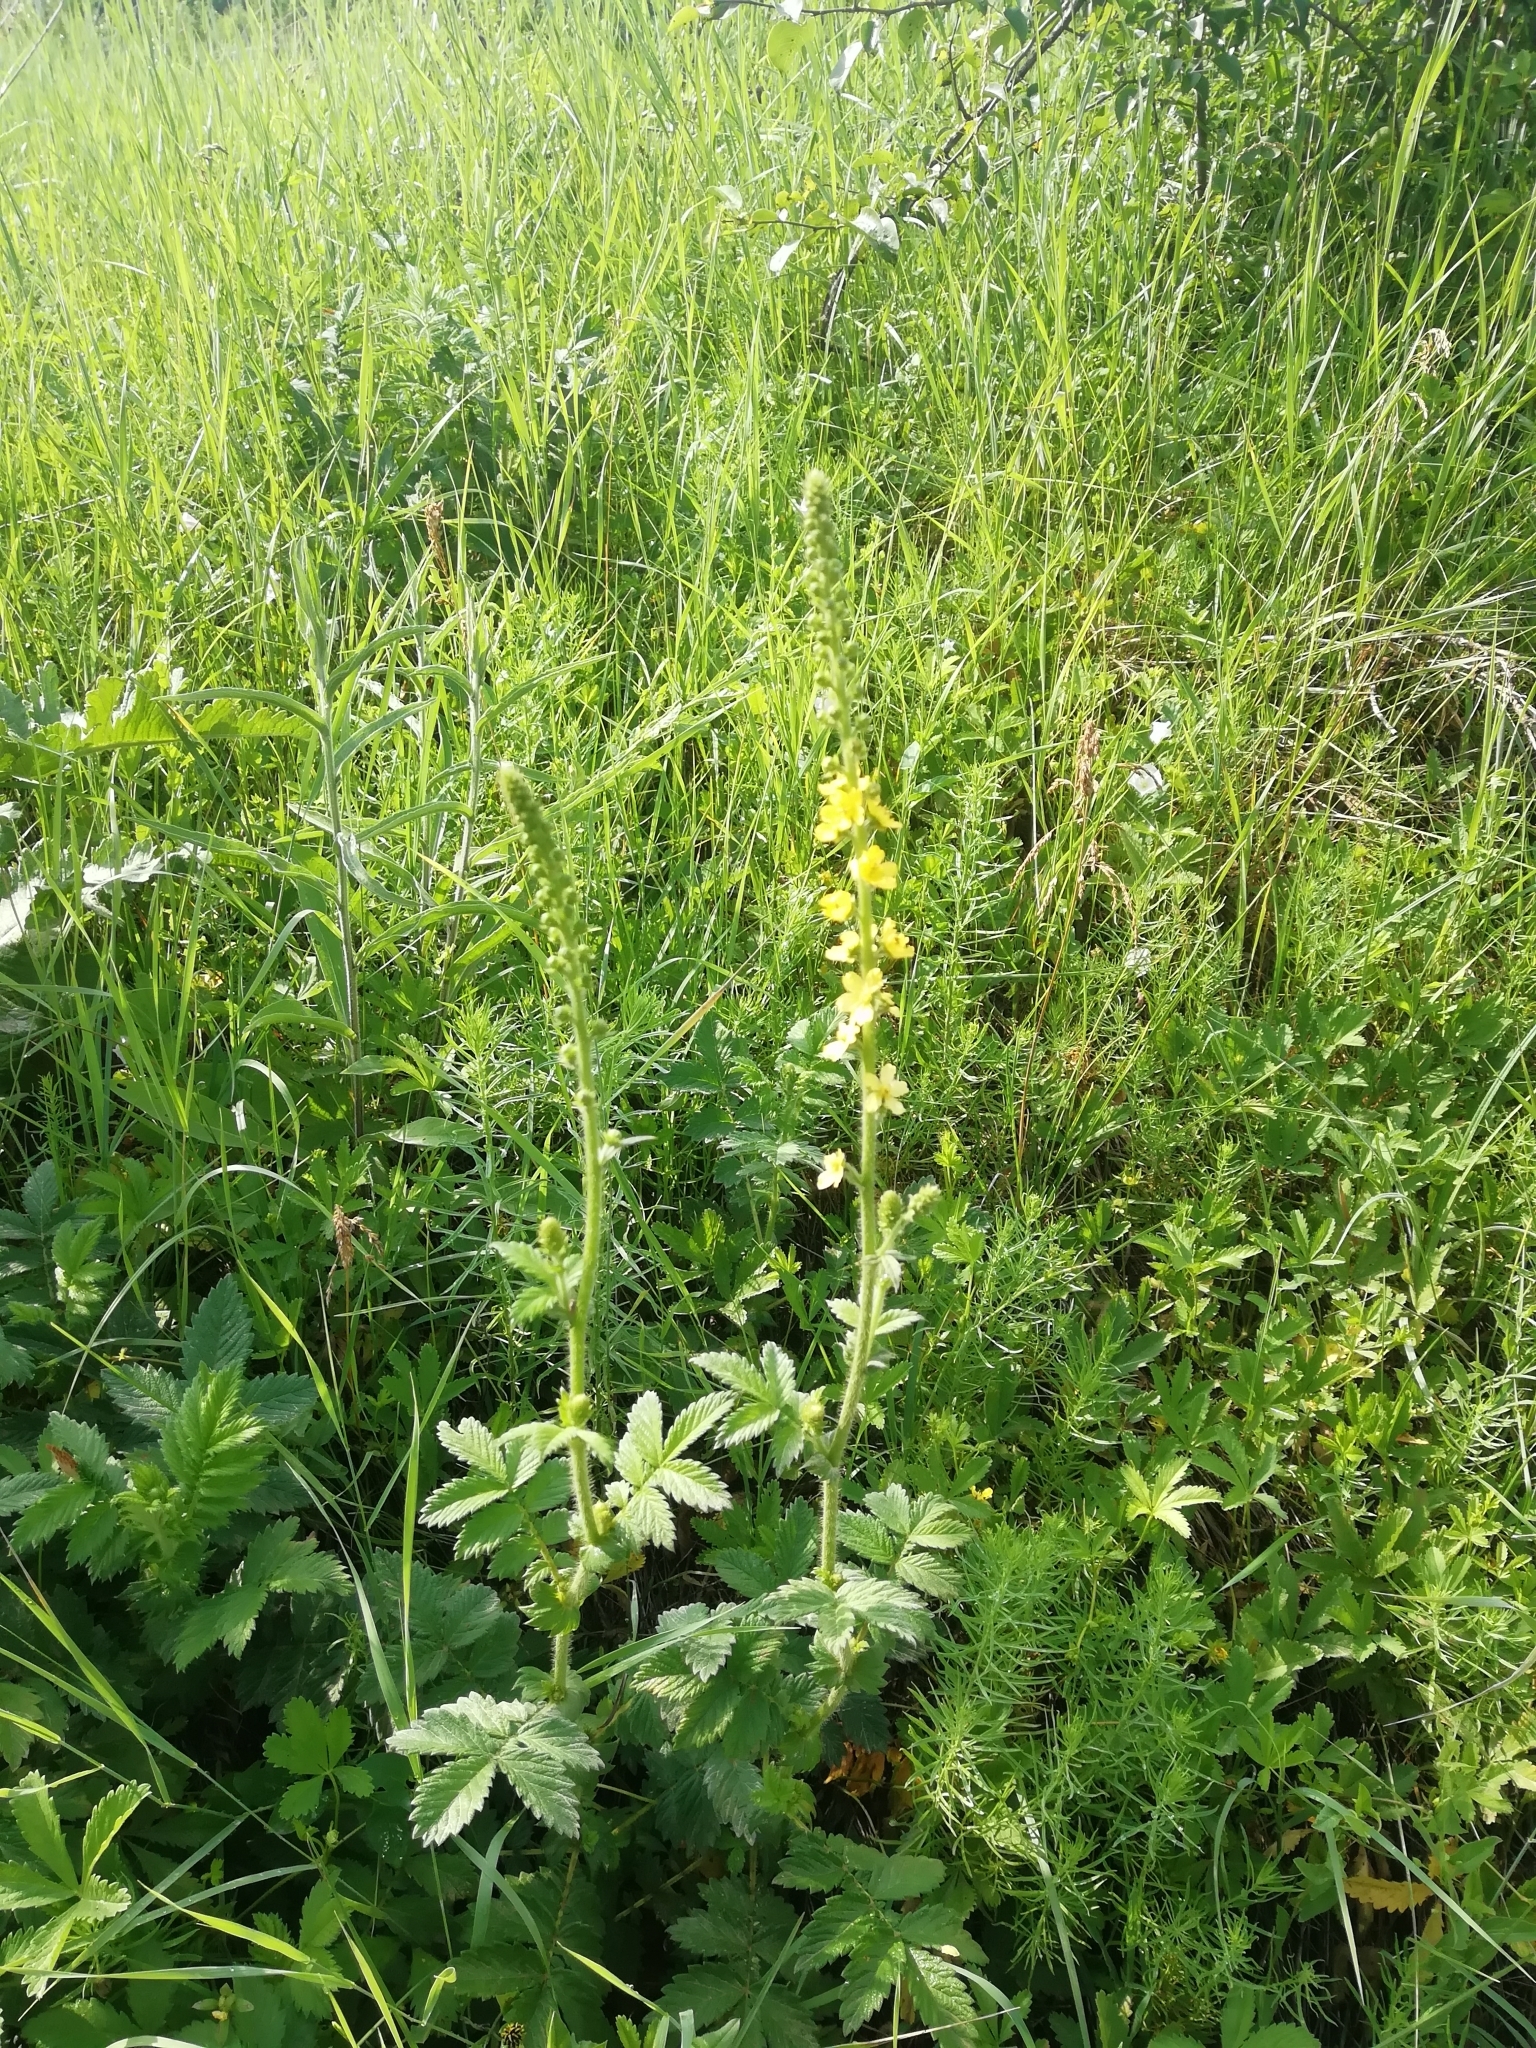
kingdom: Plantae
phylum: Tracheophyta
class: Magnoliopsida
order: Rosales
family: Rosaceae
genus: Agrimonia
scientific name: Agrimonia eupatoria
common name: Agrimony
